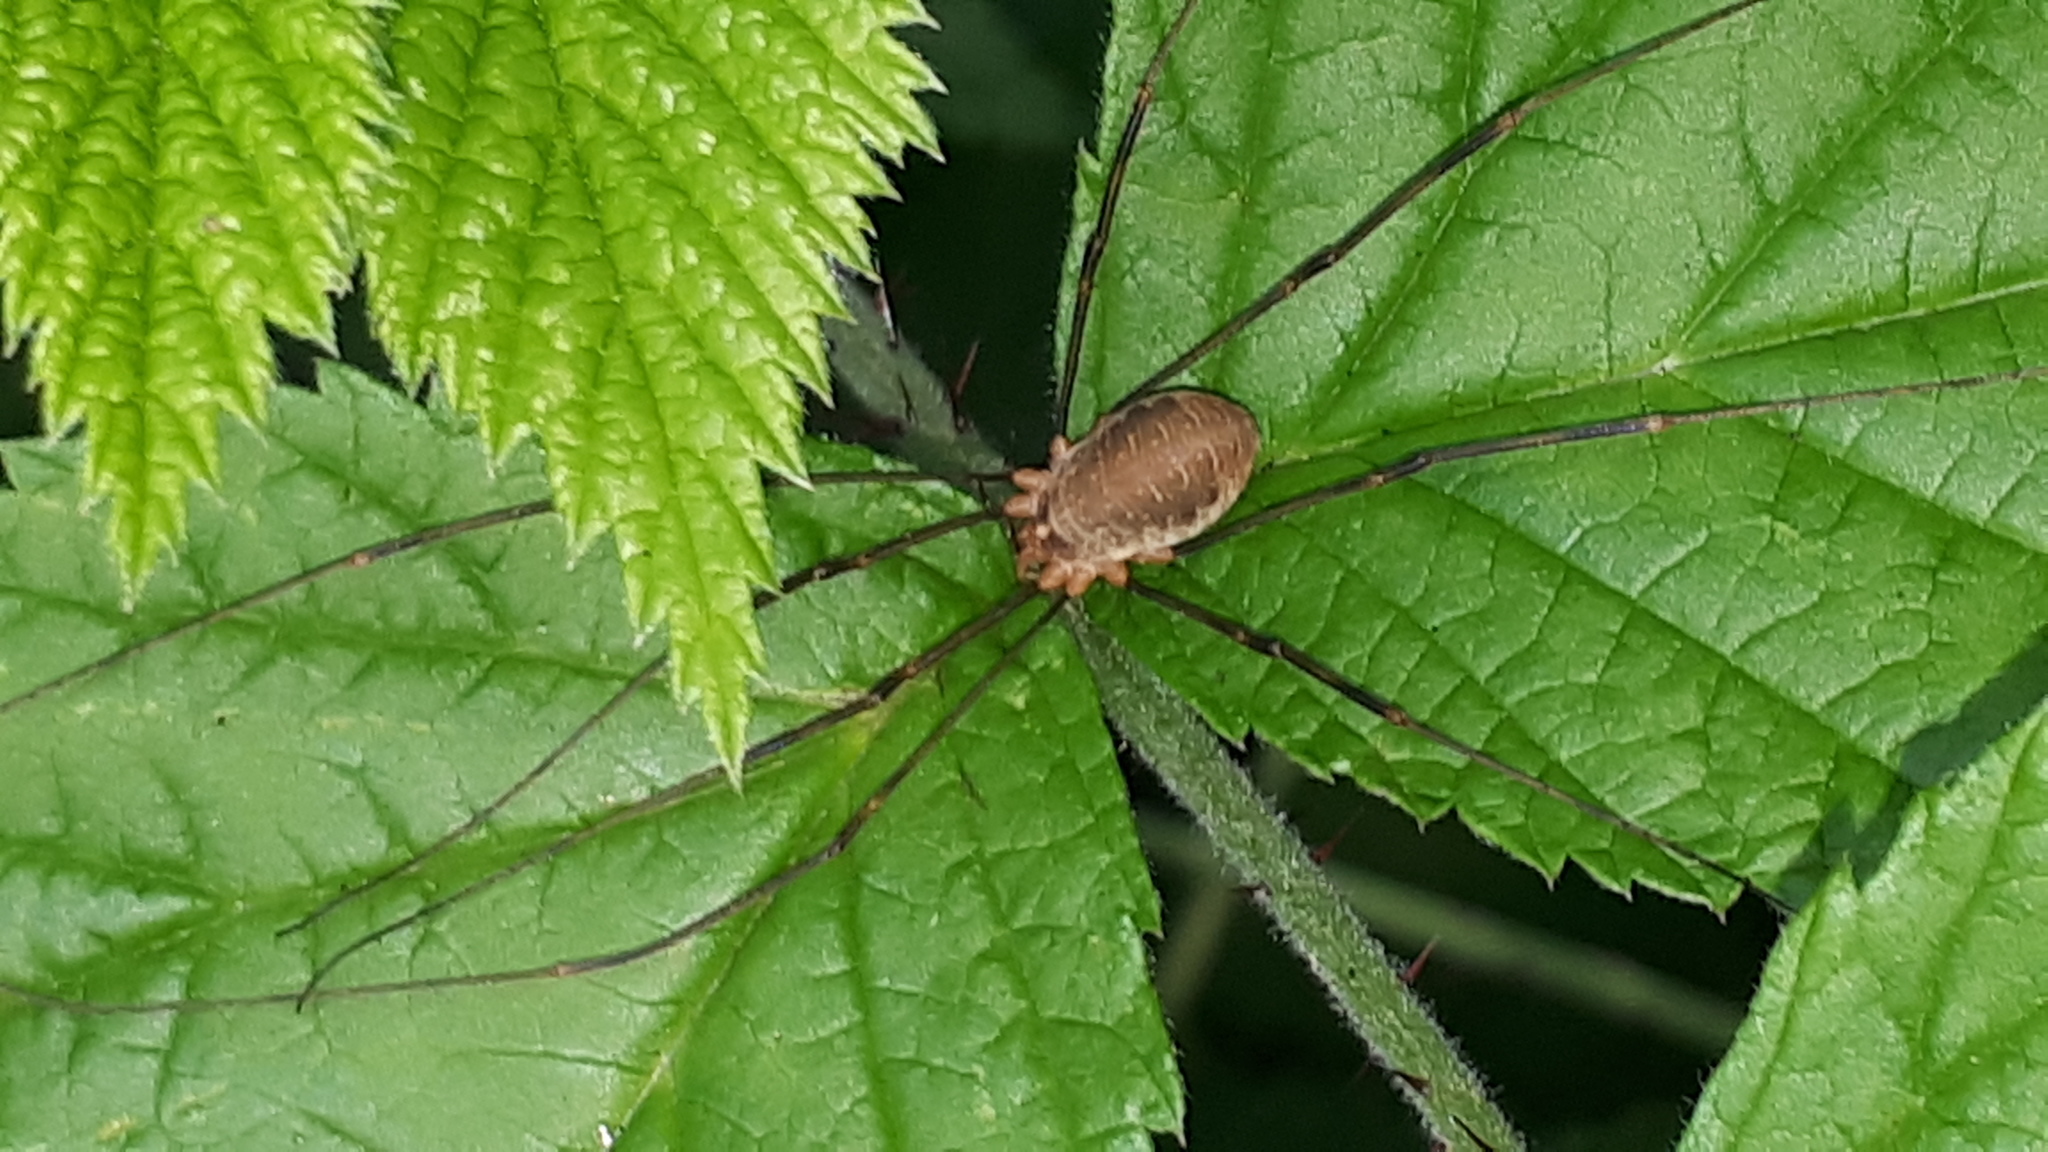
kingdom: Animalia
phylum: Arthropoda
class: Arachnida
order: Opiliones
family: Phalangiidae
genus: Opilio
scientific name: Opilio canestrinii
